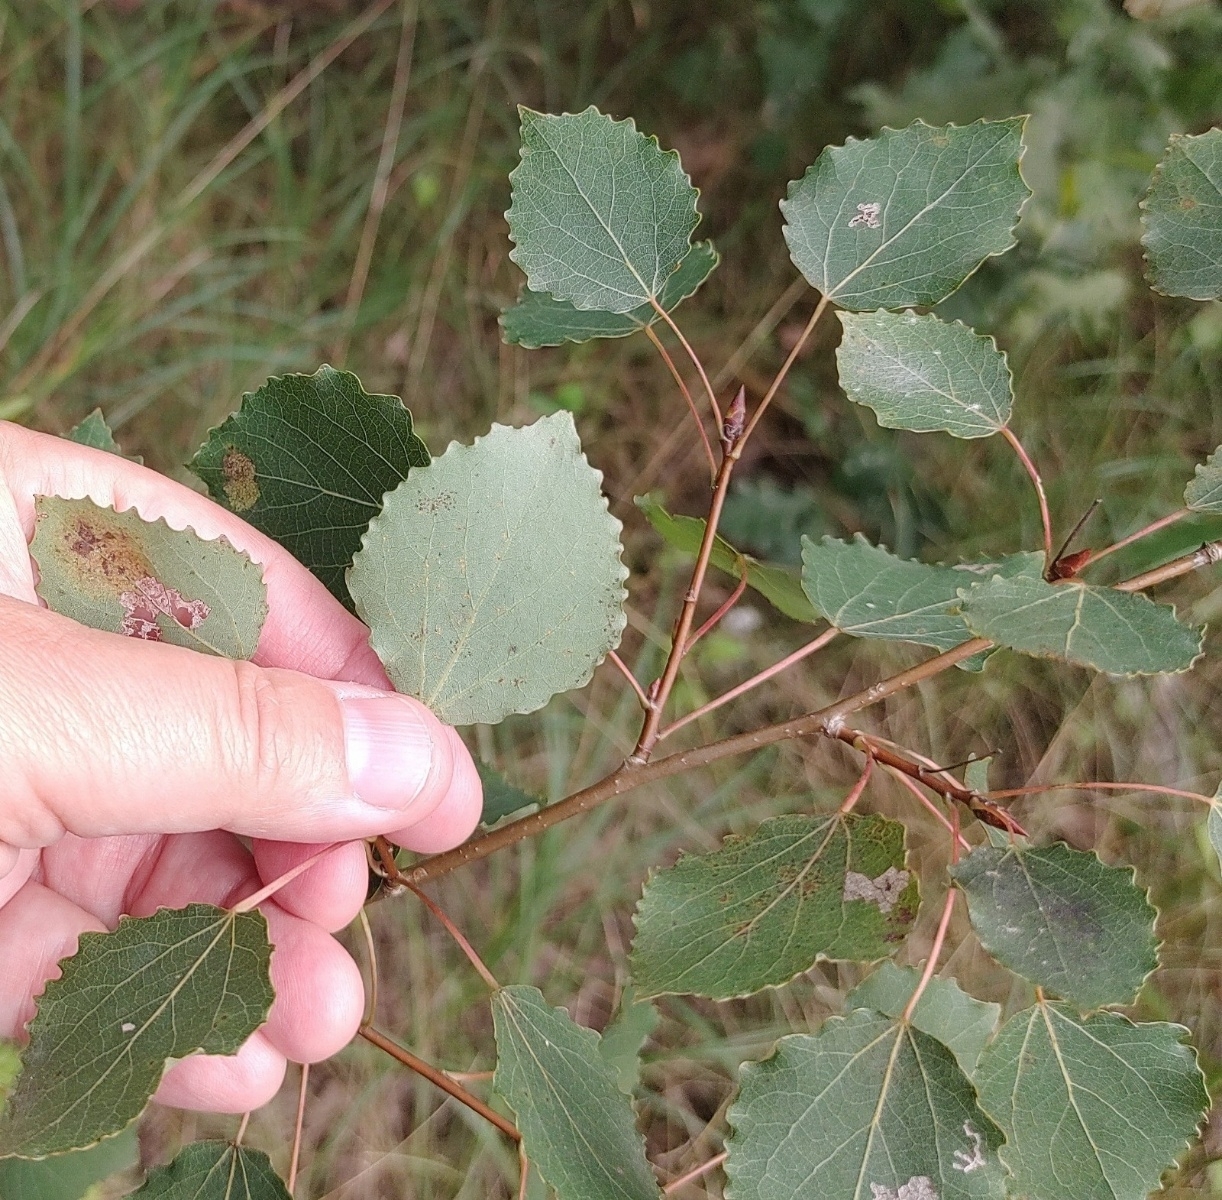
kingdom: Plantae
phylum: Tracheophyta
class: Magnoliopsida
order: Malpighiales
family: Salicaceae
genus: Populus
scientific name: Populus tremula
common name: European aspen
